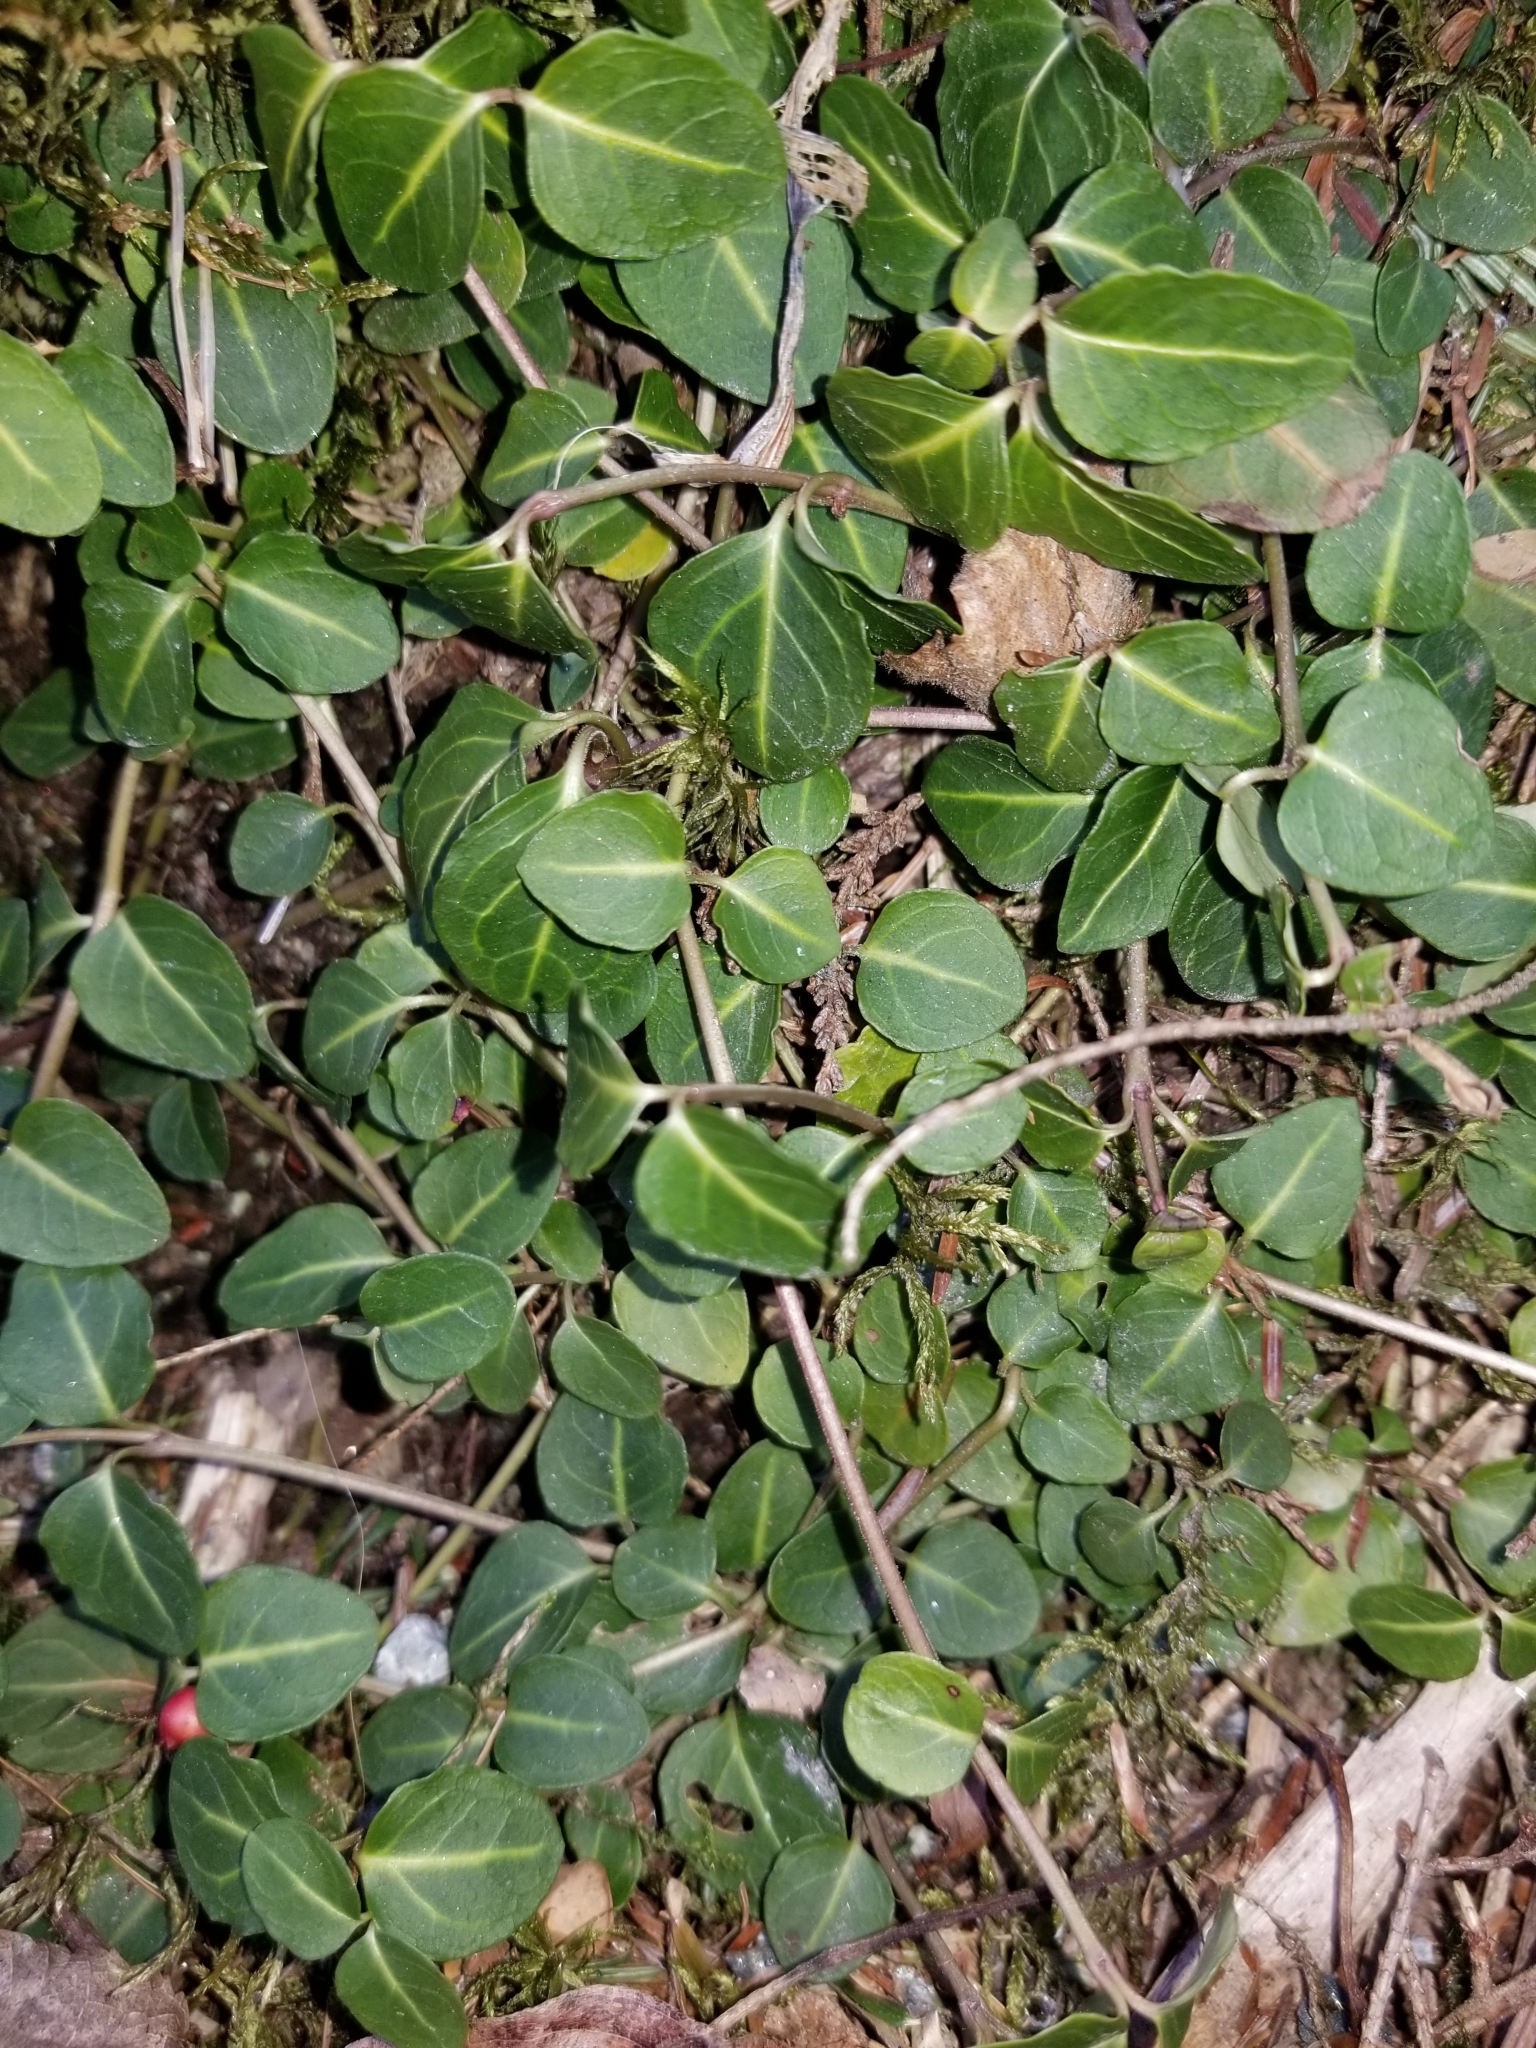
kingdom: Plantae
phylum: Tracheophyta
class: Magnoliopsida
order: Gentianales
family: Rubiaceae
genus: Mitchella
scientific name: Mitchella repens
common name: Partridge-berry
